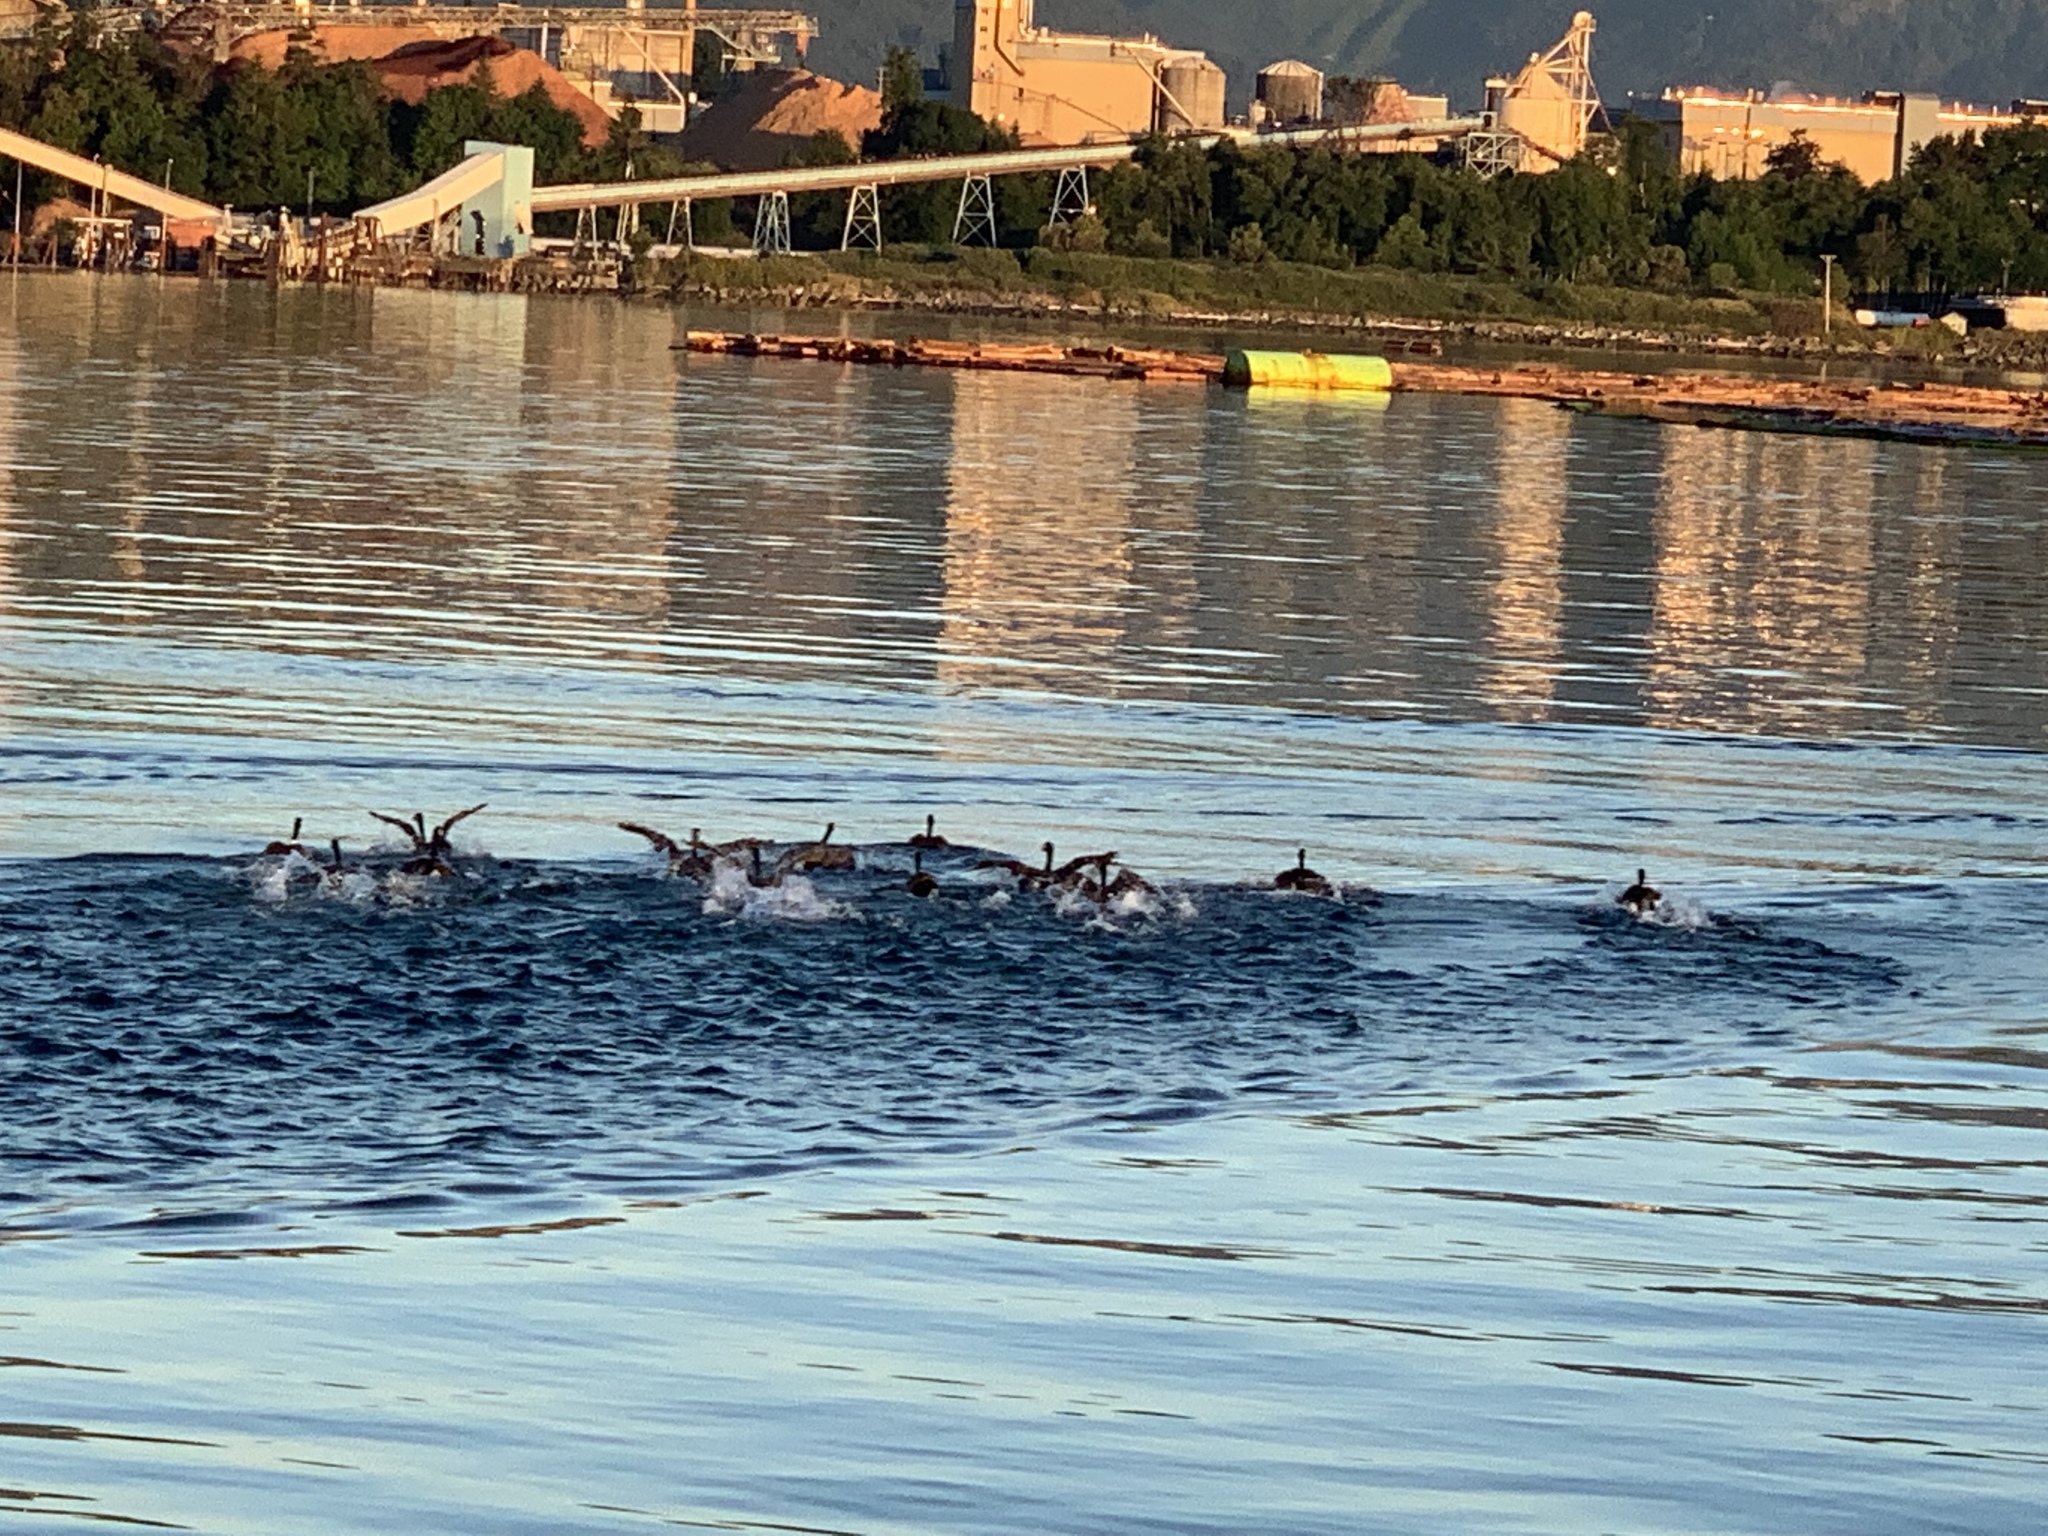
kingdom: Animalia
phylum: Chordata
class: Aves
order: Anseriformes
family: Anatidae
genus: Branta
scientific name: Branta canadensis
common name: Canada goose
